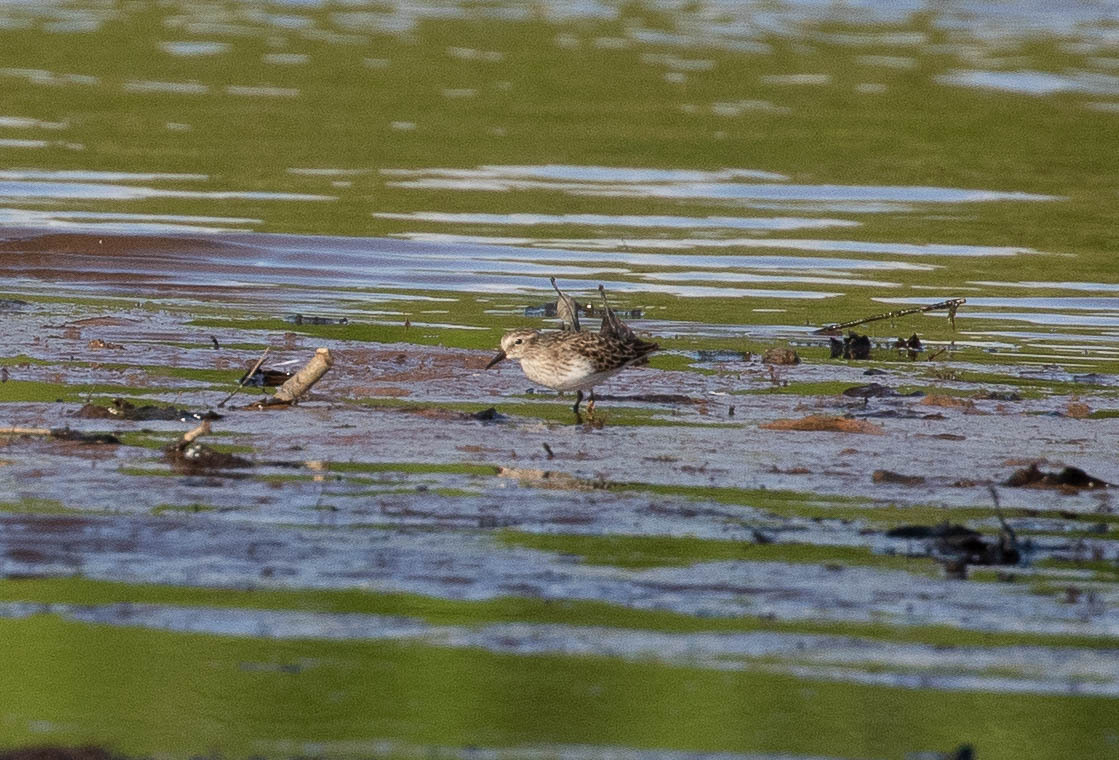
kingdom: Animalia
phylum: Chordata
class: Aves
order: Charadriiformes
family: Scolopacidae
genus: Calidris
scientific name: Calidris minutilla
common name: Least sandpiper
